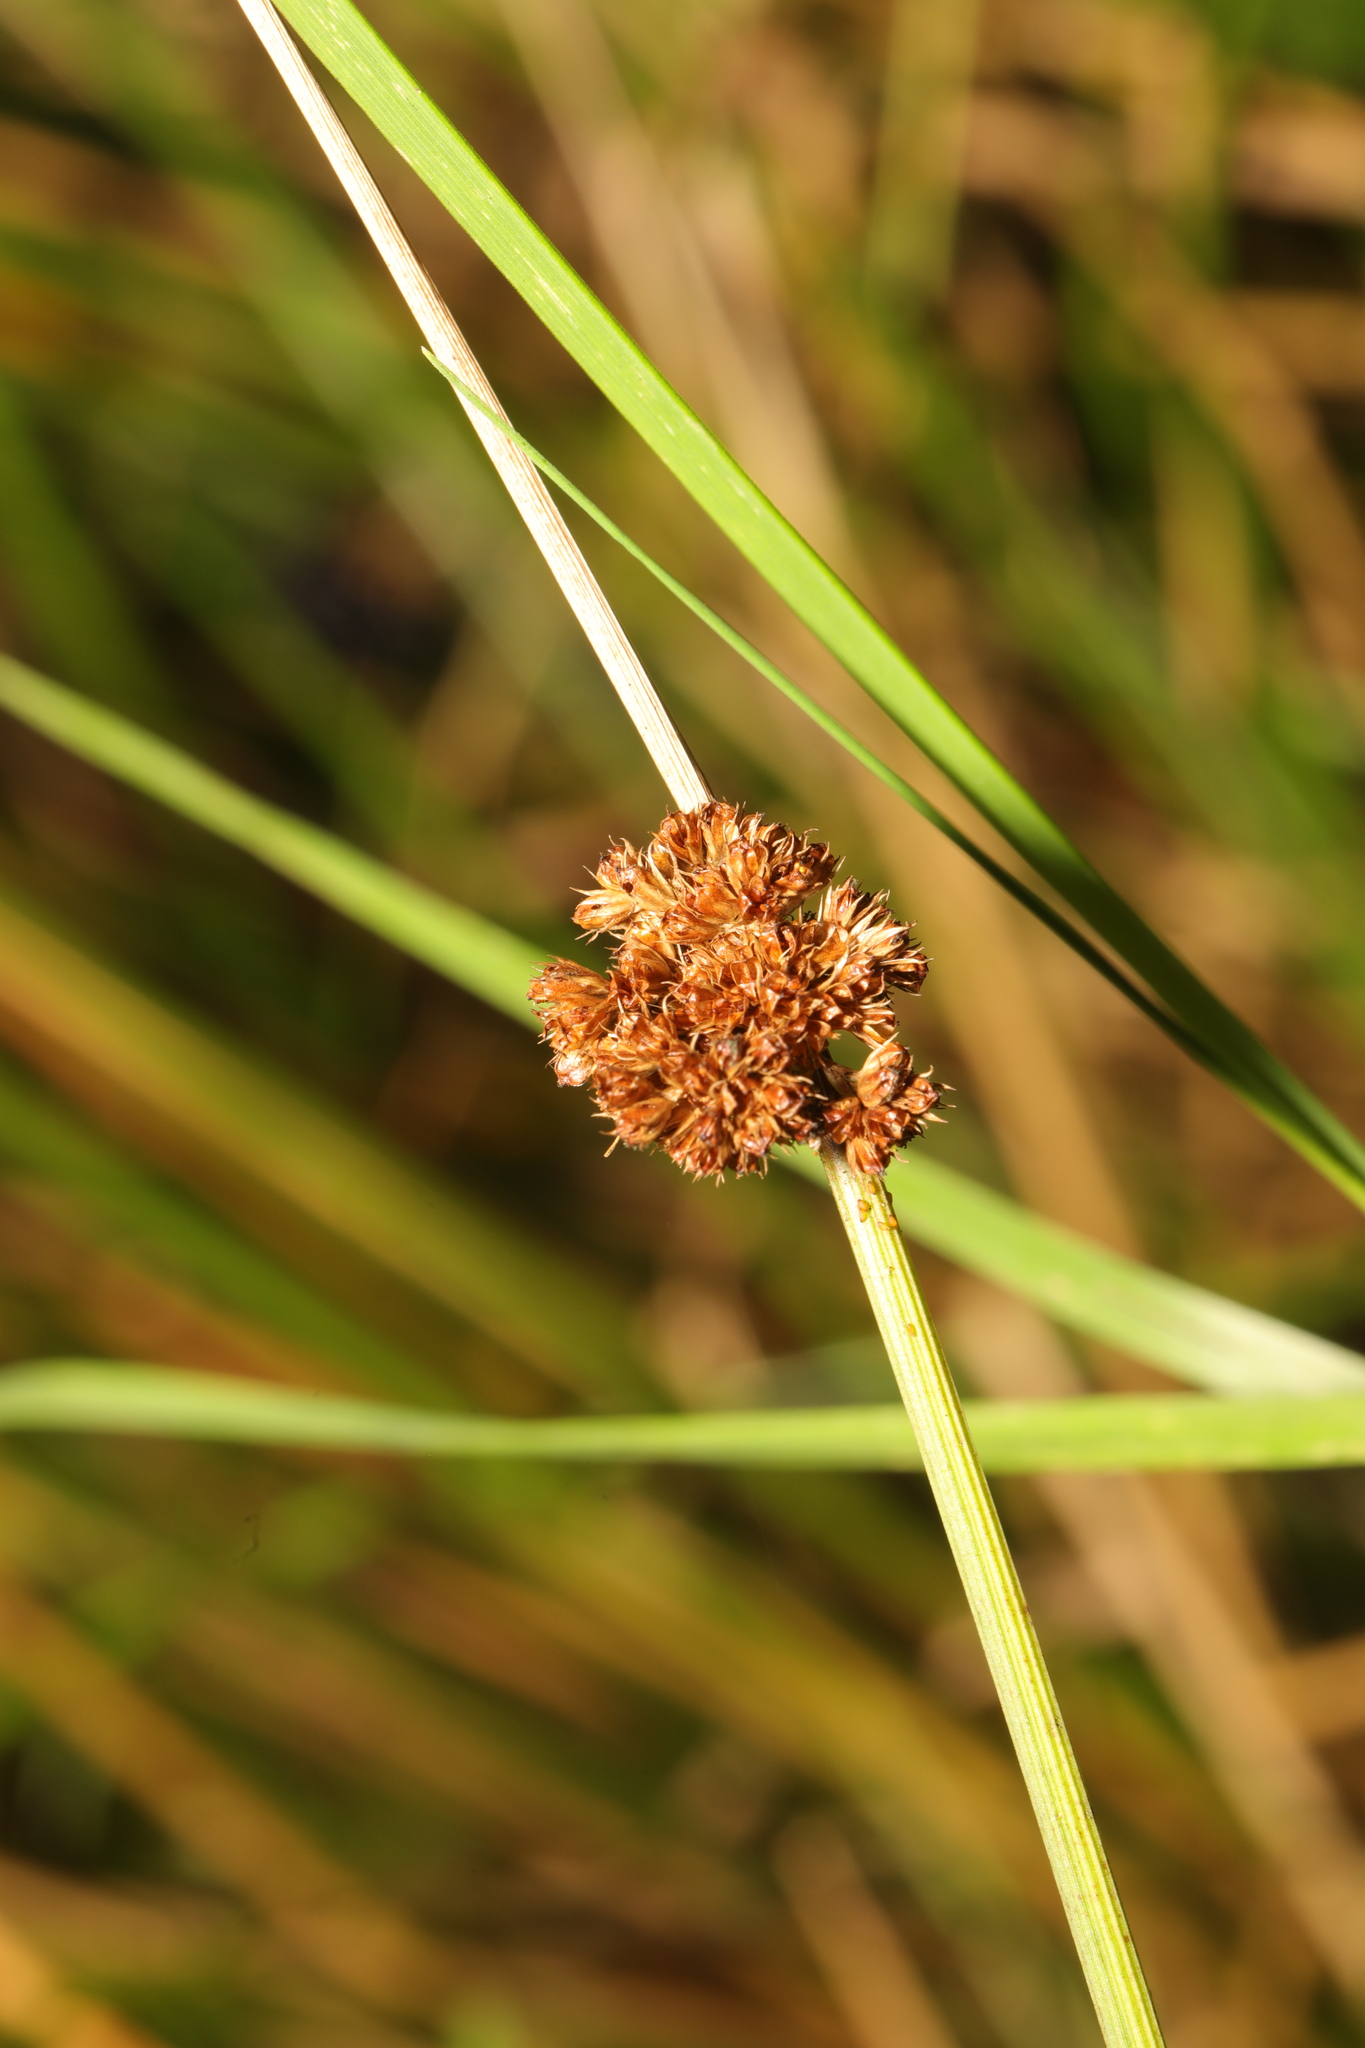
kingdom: Plantae
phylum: Tracheophyta
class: Liliopsida
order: Poales
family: Juncaceae
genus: Juncus
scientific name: Juncus conglomeratus
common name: Compact rush
